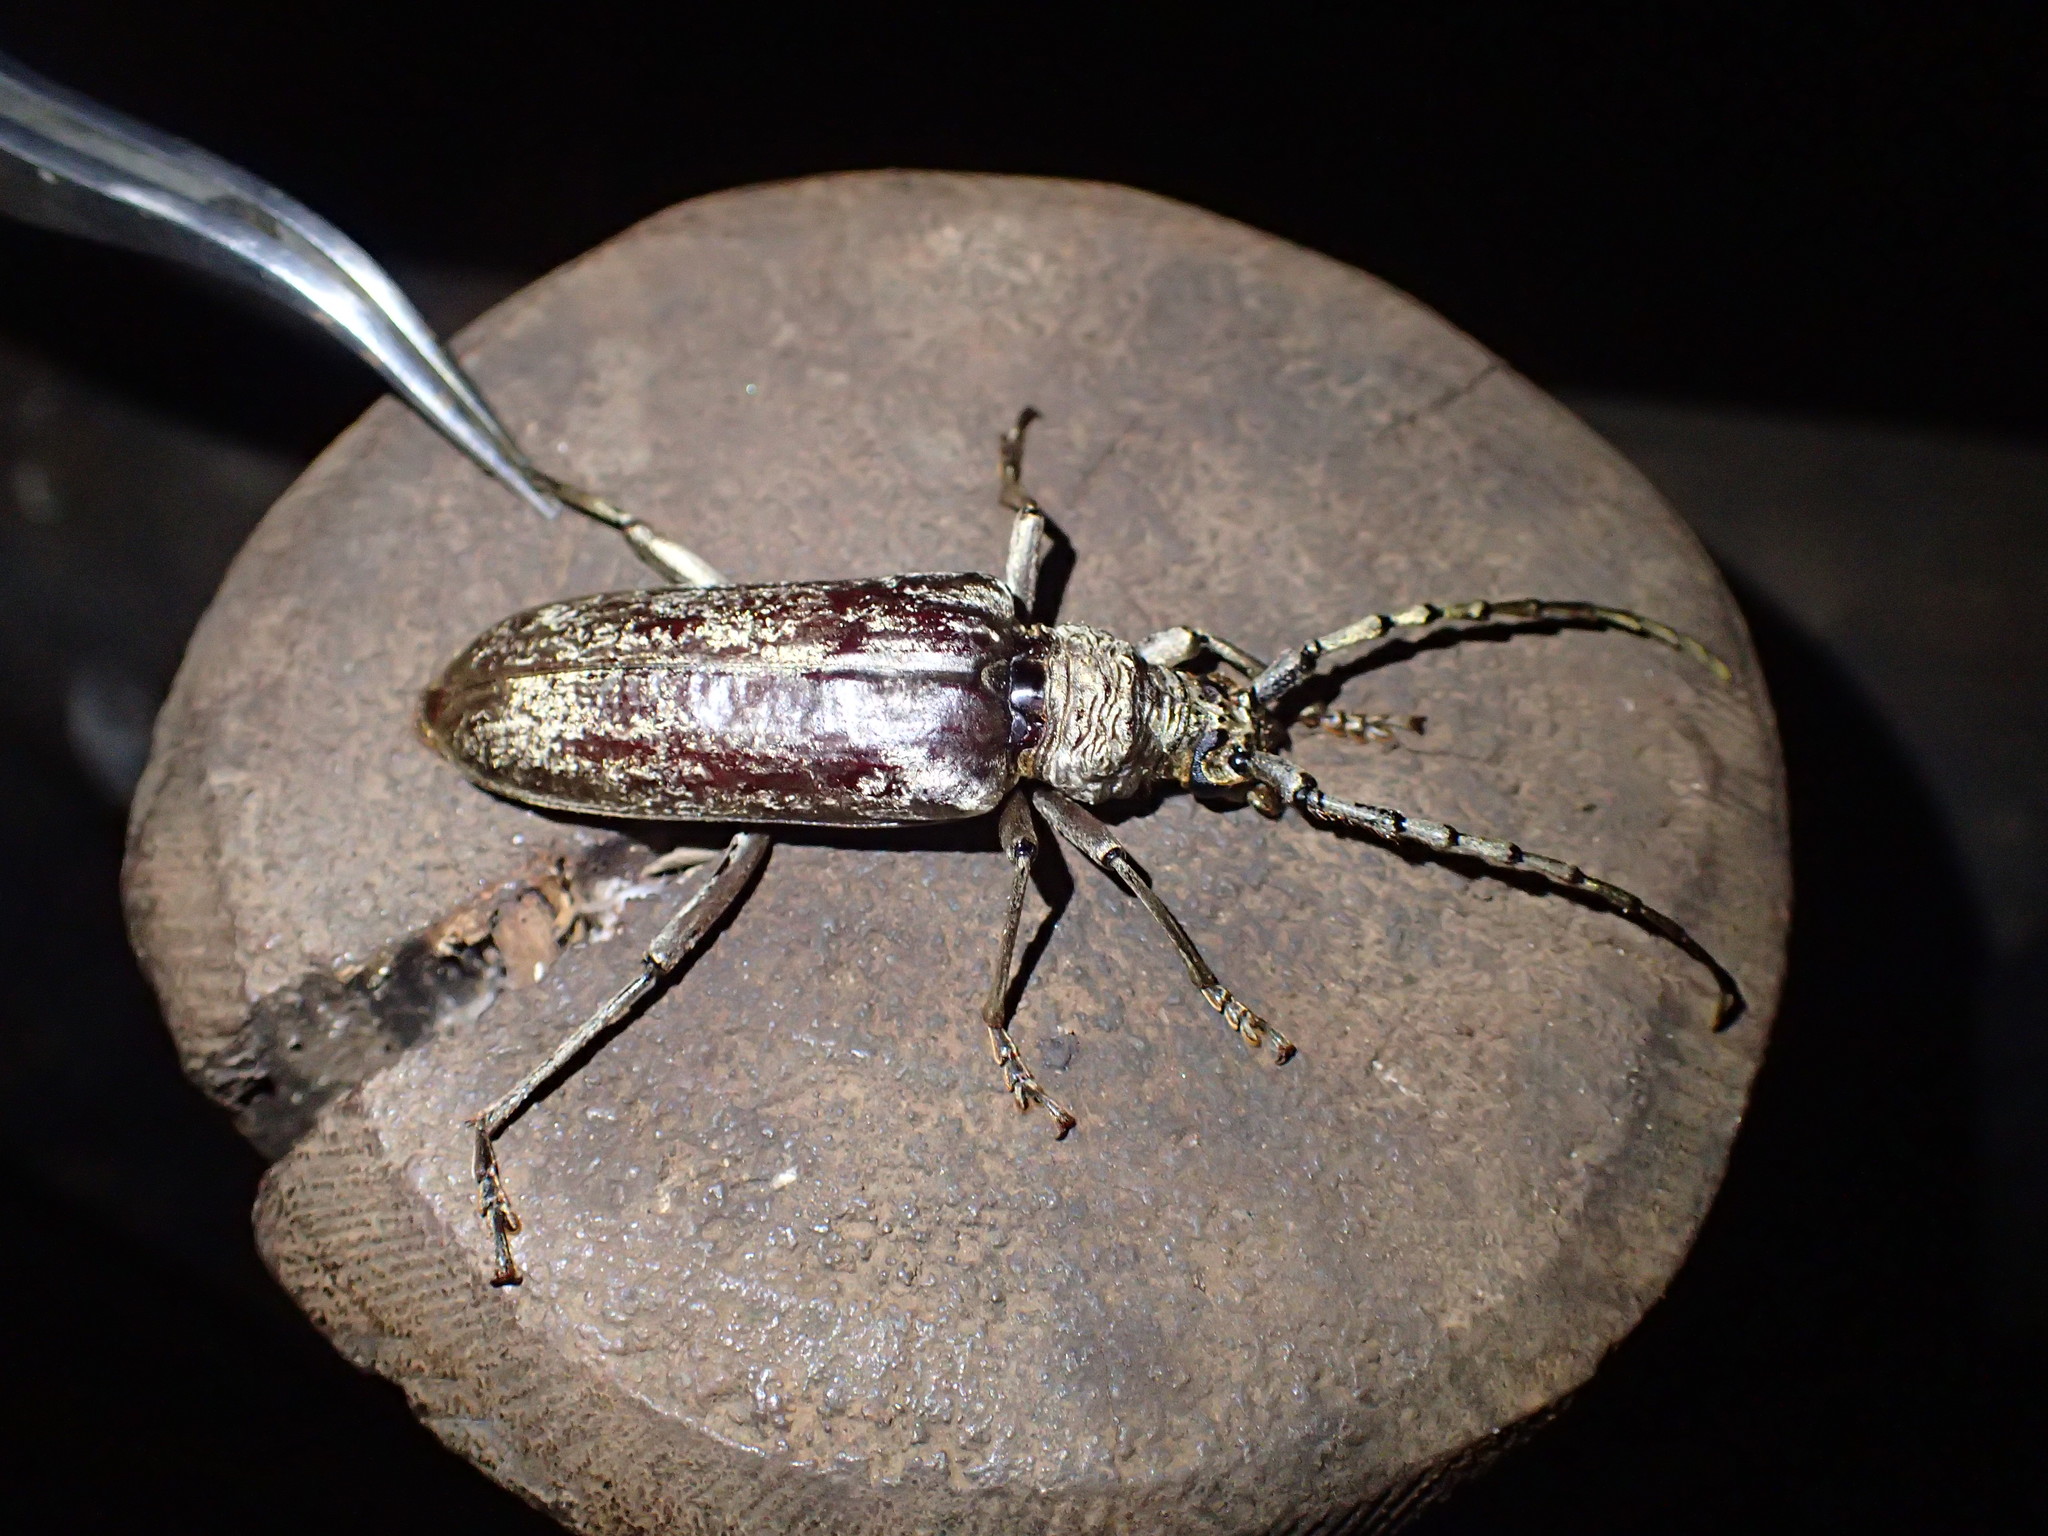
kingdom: Animalia
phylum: Arthropoda
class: Insecta
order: Coleoptera
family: Cerambycidae
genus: Taurotagus
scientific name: Taurotagus klugii
